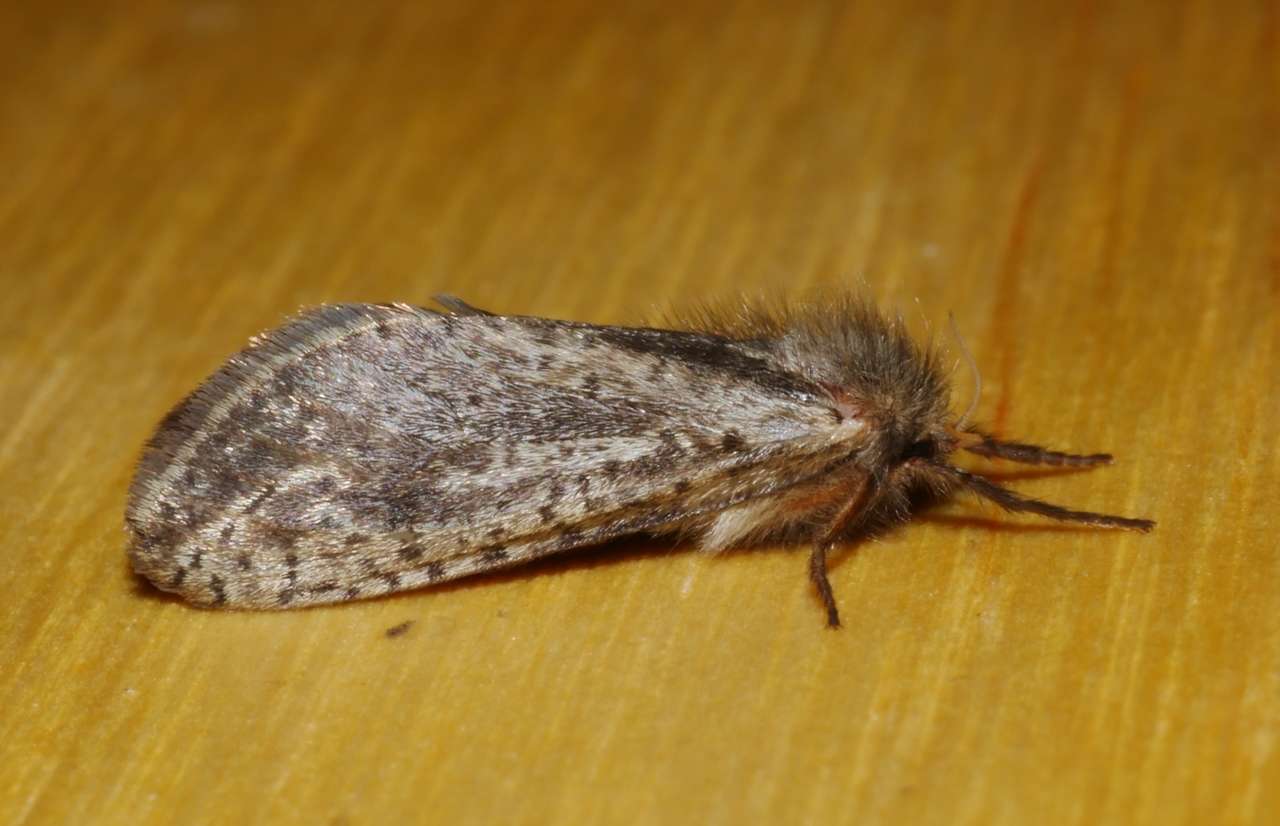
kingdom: Animalia
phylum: Arthropoda
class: Insecta
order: Lepidoptera
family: Hepialidae
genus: Fraus
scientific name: Fraus simulans
